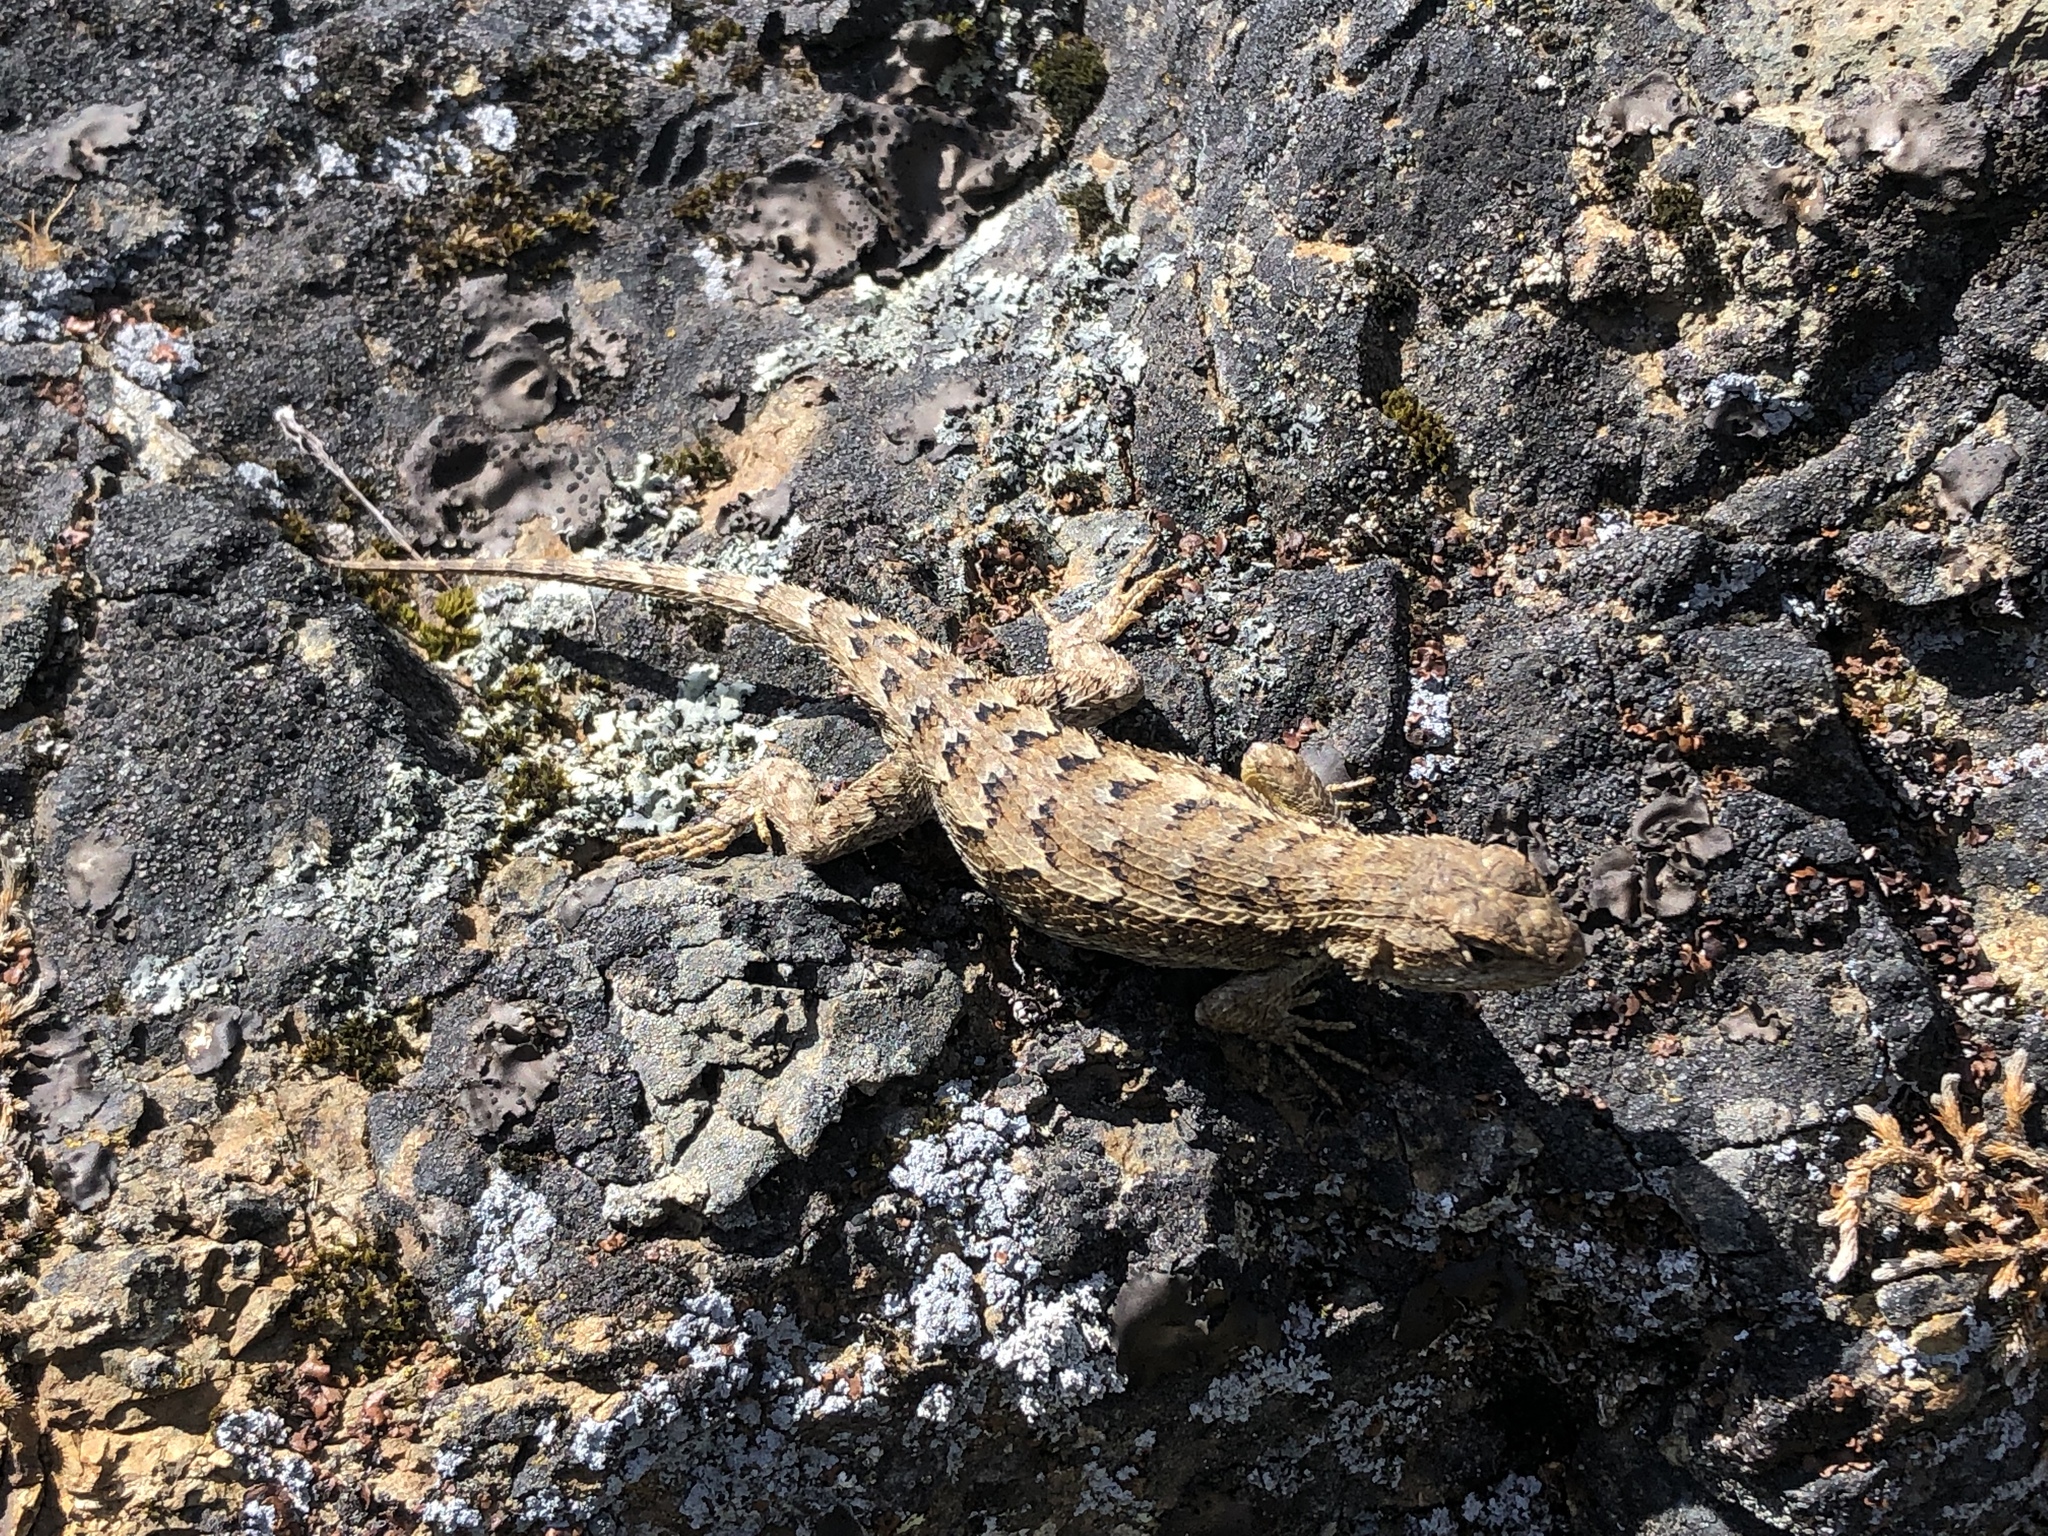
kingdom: Animalia
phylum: Chordata
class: Squamata
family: Phrynosomatidae
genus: Sceloporus
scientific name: Sceloporus occidentalis
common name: Western fence lizard
